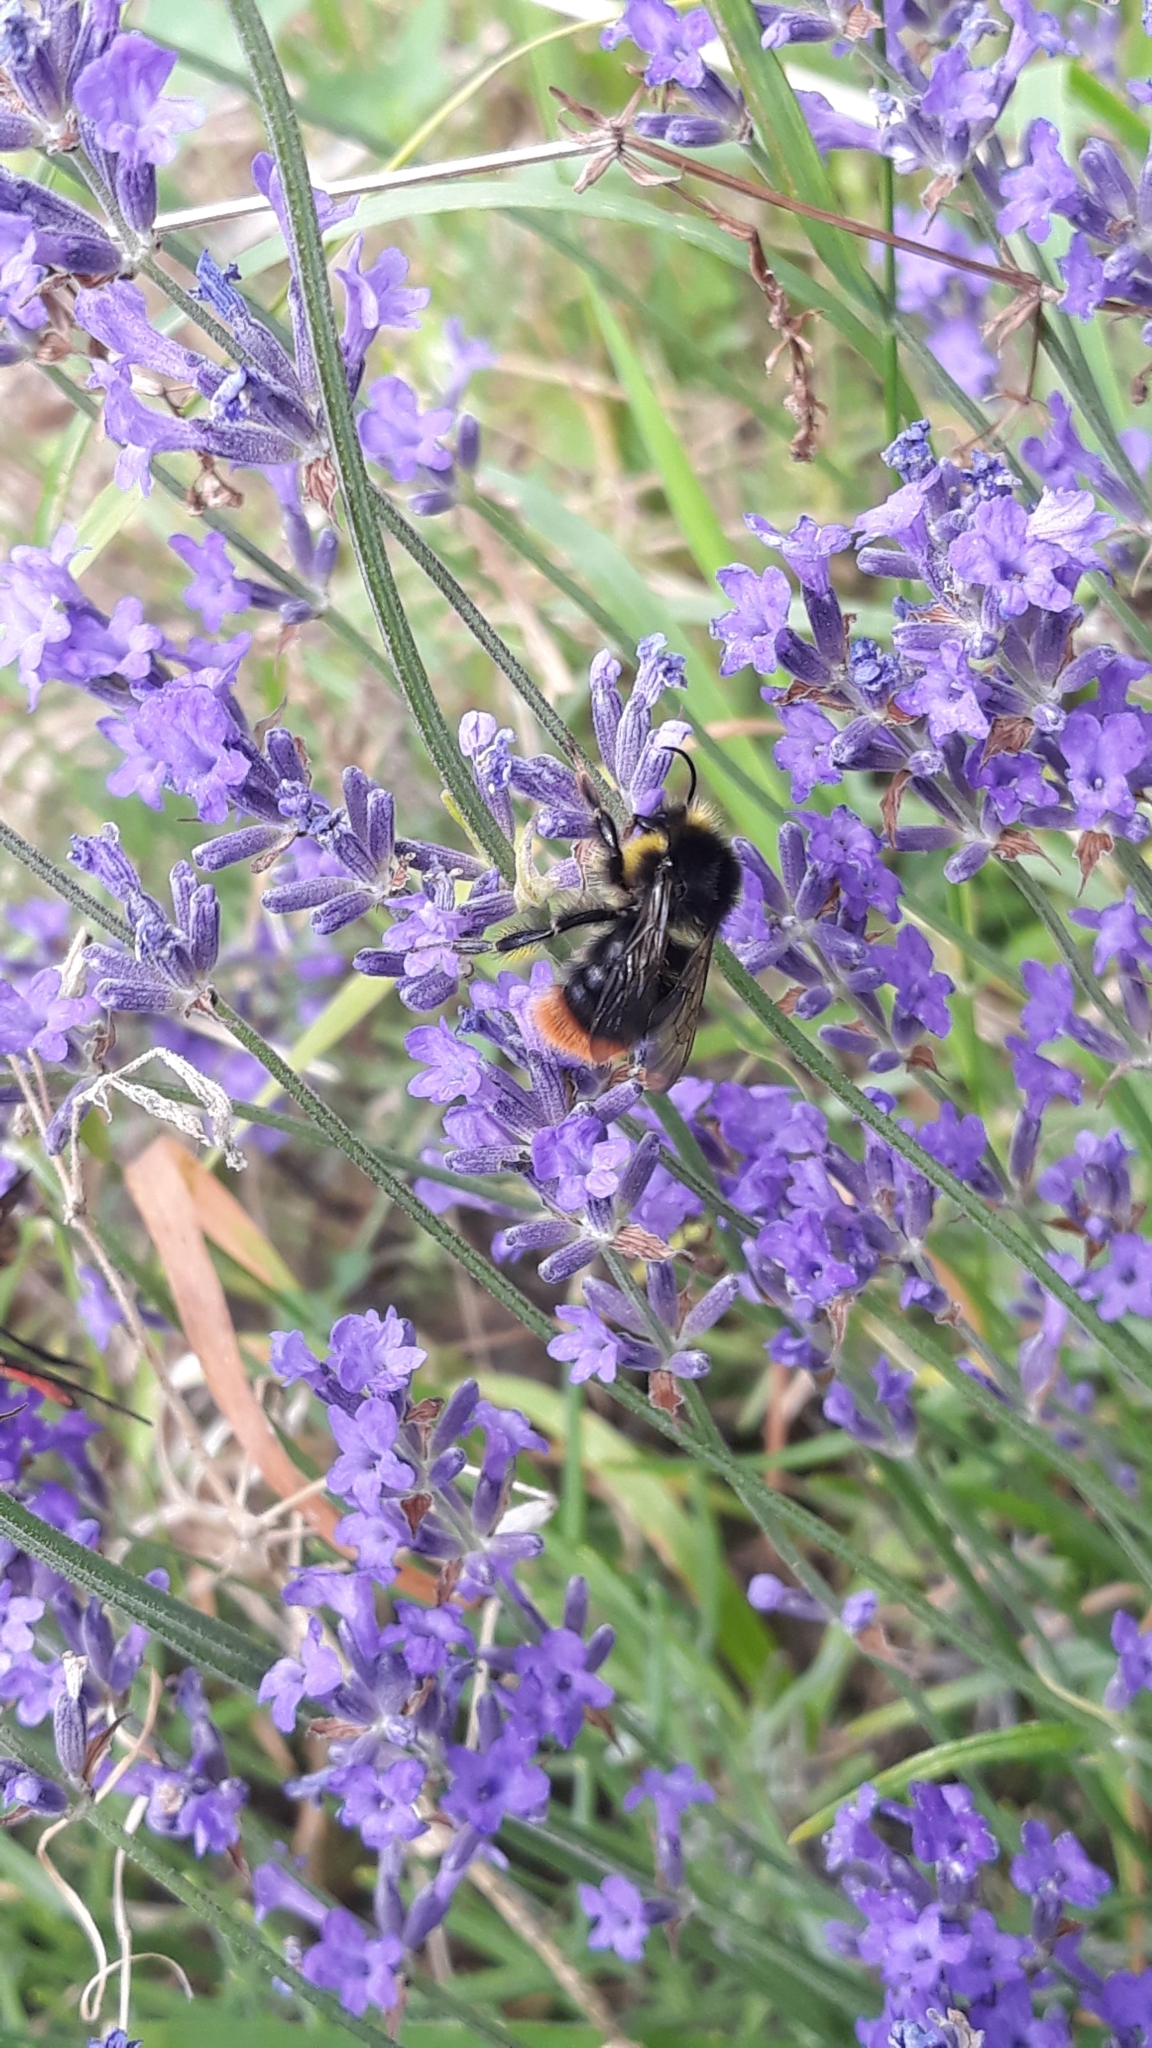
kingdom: Animalia
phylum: Arthropoda
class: Insecta
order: Hymenoptera
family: Apidae
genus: Bombus
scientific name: Bombus soroeensis
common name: Broken-belted humble-bee
